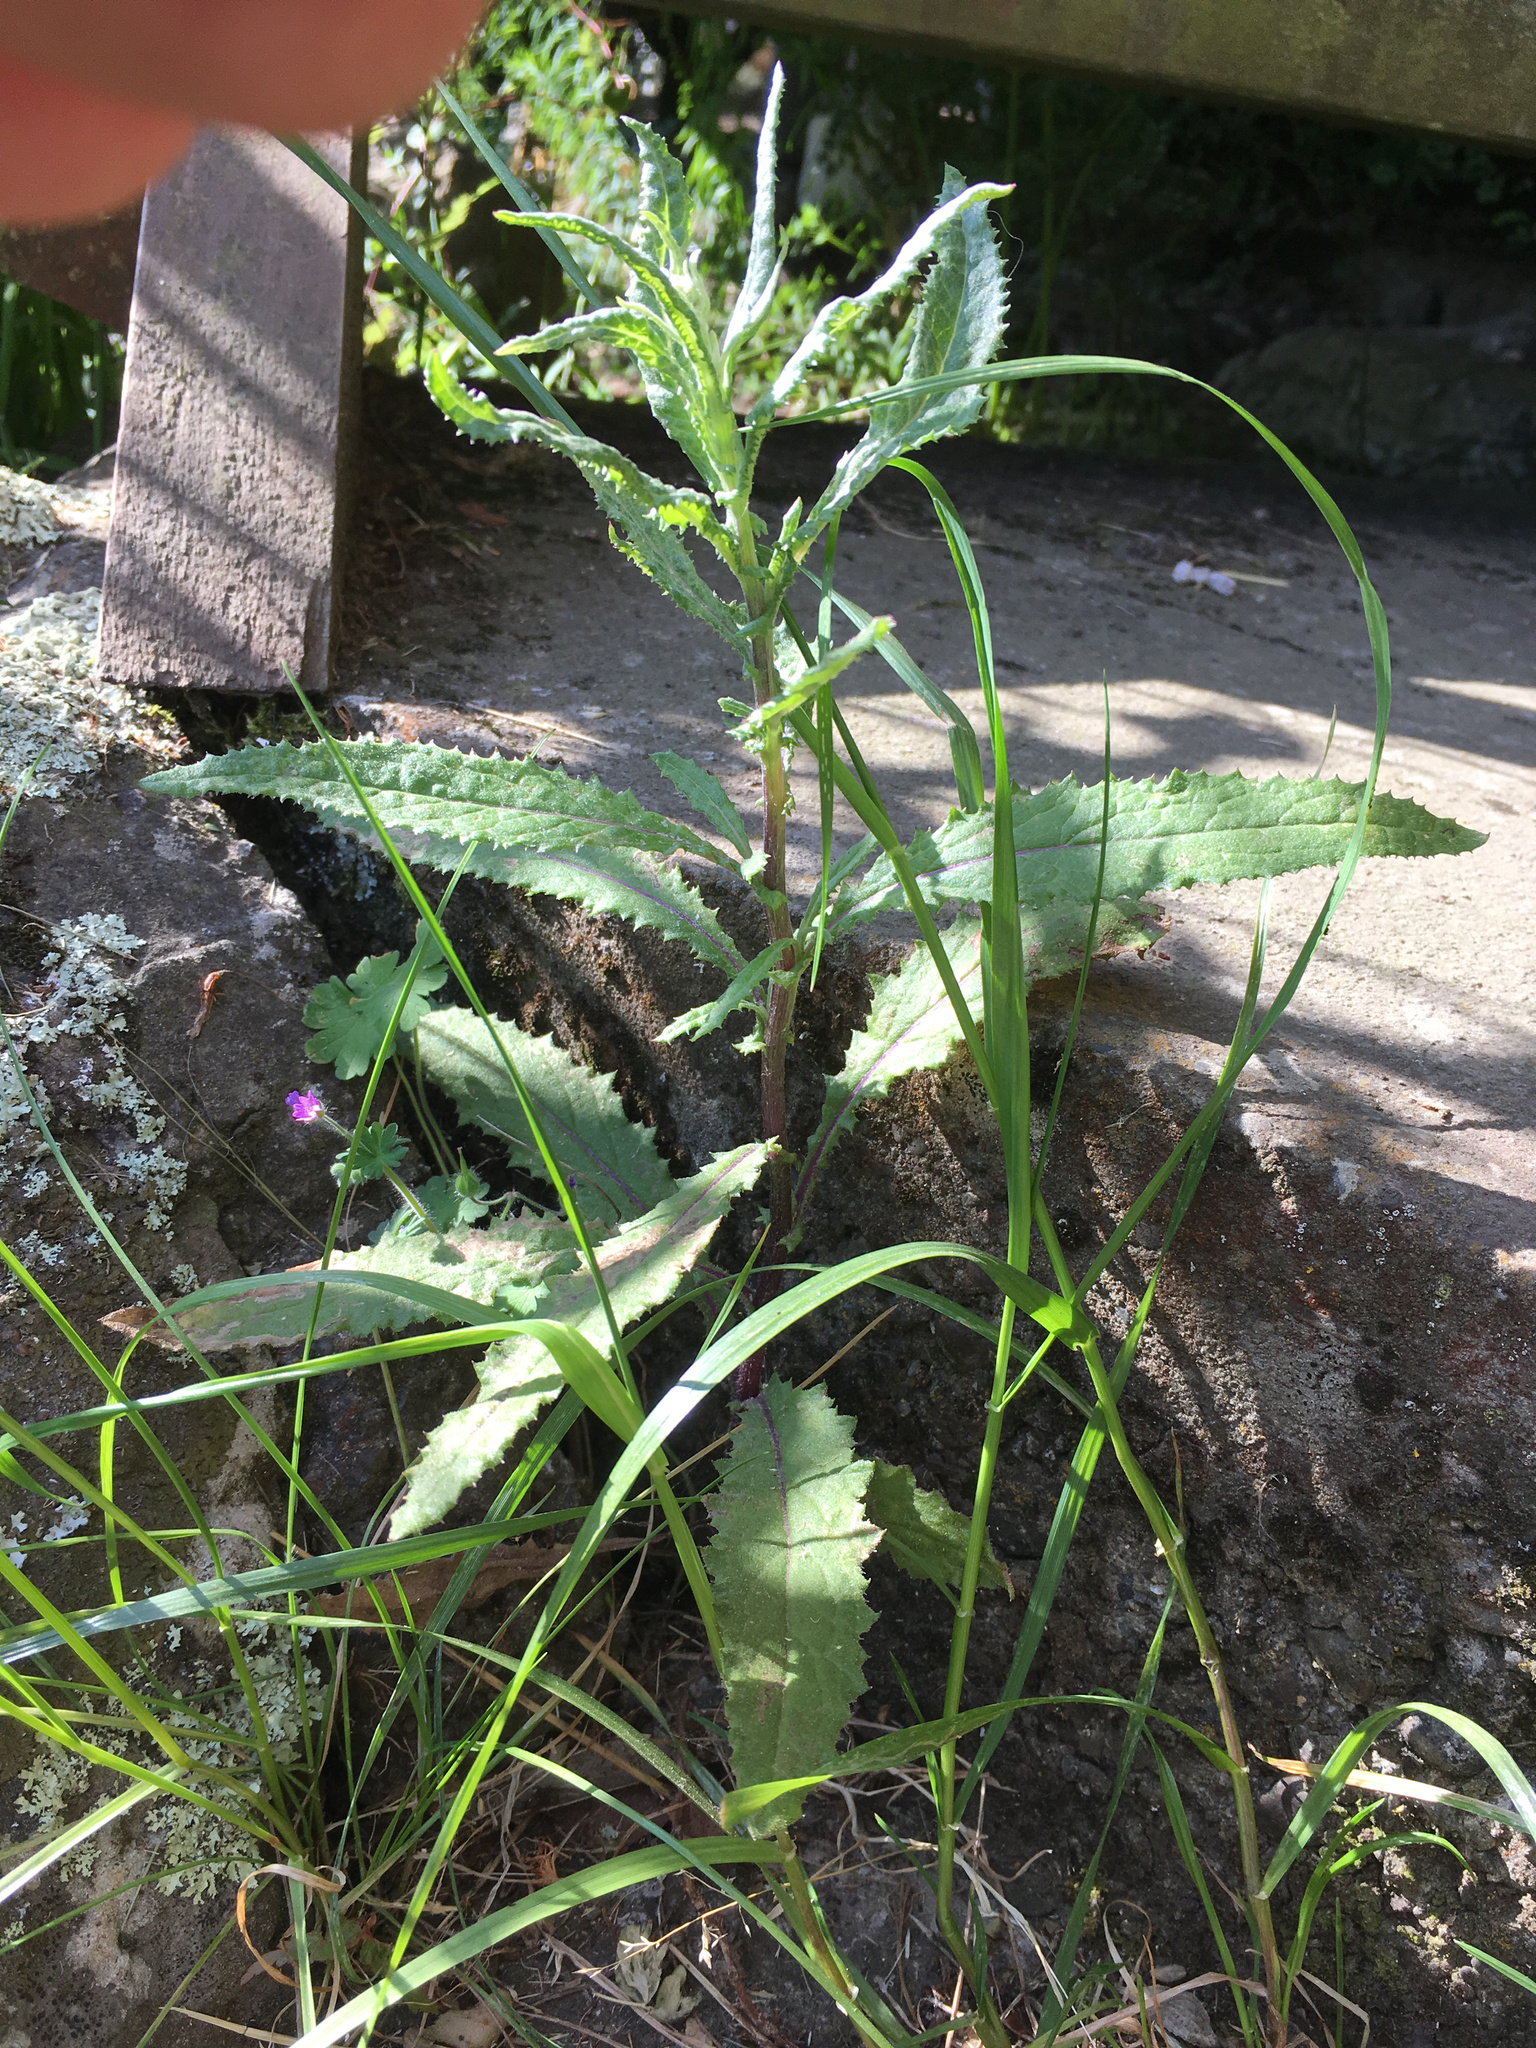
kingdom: Plantae
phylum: Tracheophyta
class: Magnoliopsida
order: Asterales
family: Asteraceae
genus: Senecio
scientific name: Senecio minimus
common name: Toothed fireweed
